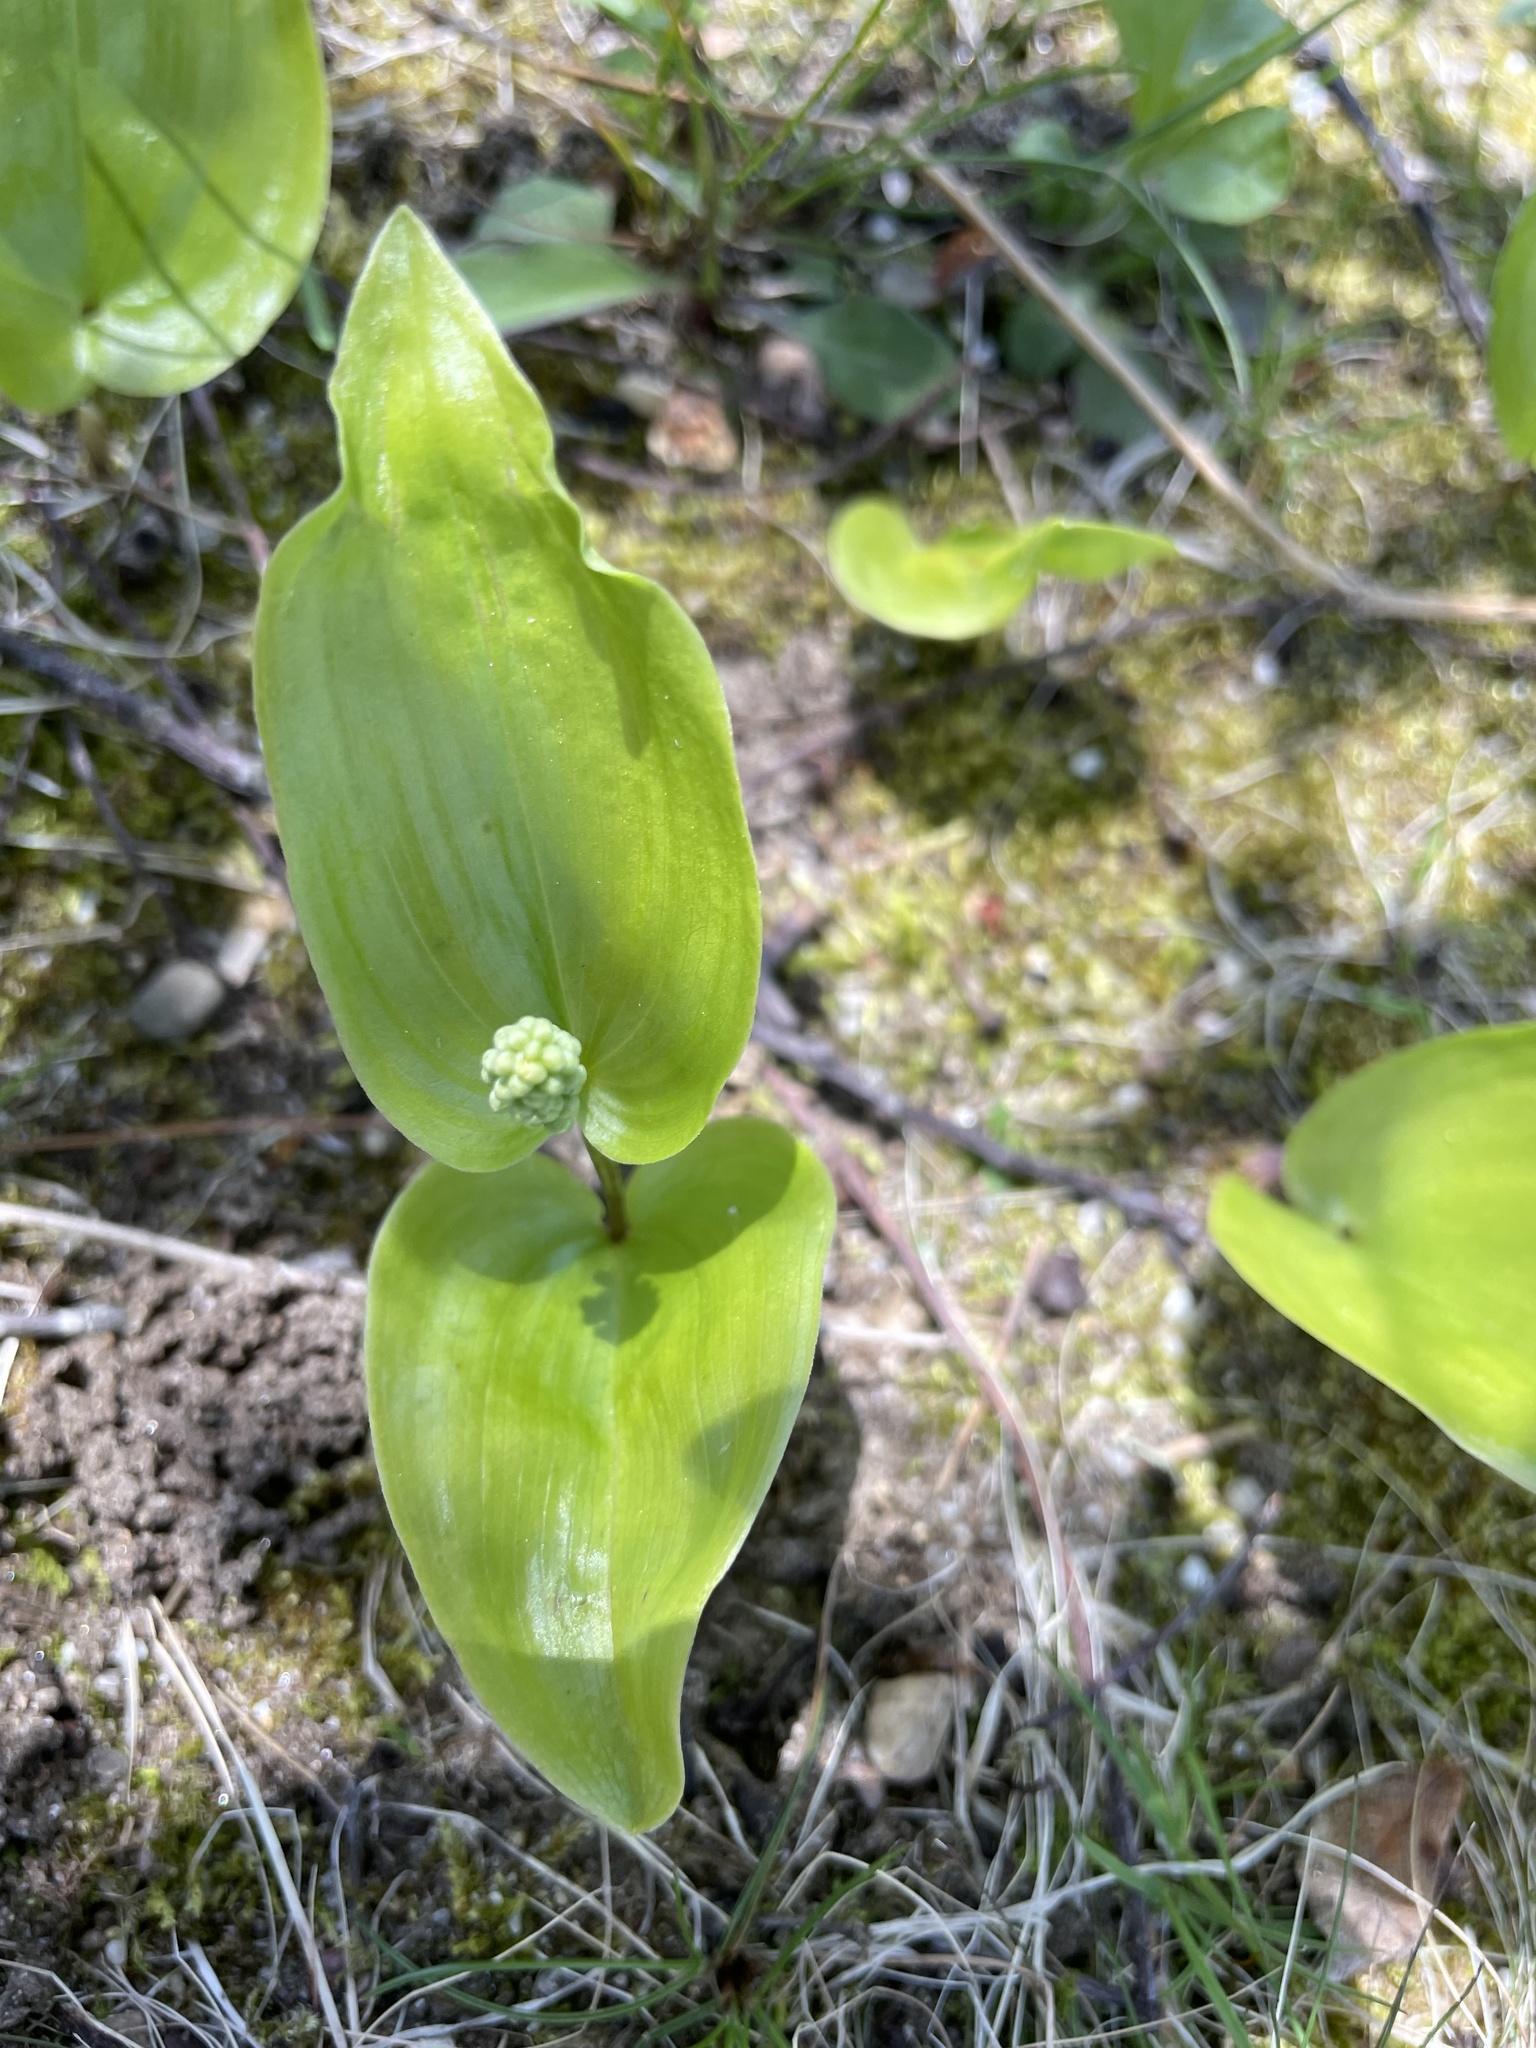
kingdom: Plantae
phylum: Tracheophyta
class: Liliopsida
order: Asparagales
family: Asparagaceae
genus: Maianthemum
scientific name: Maianthemum canadense
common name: False lily-of-the-valley
